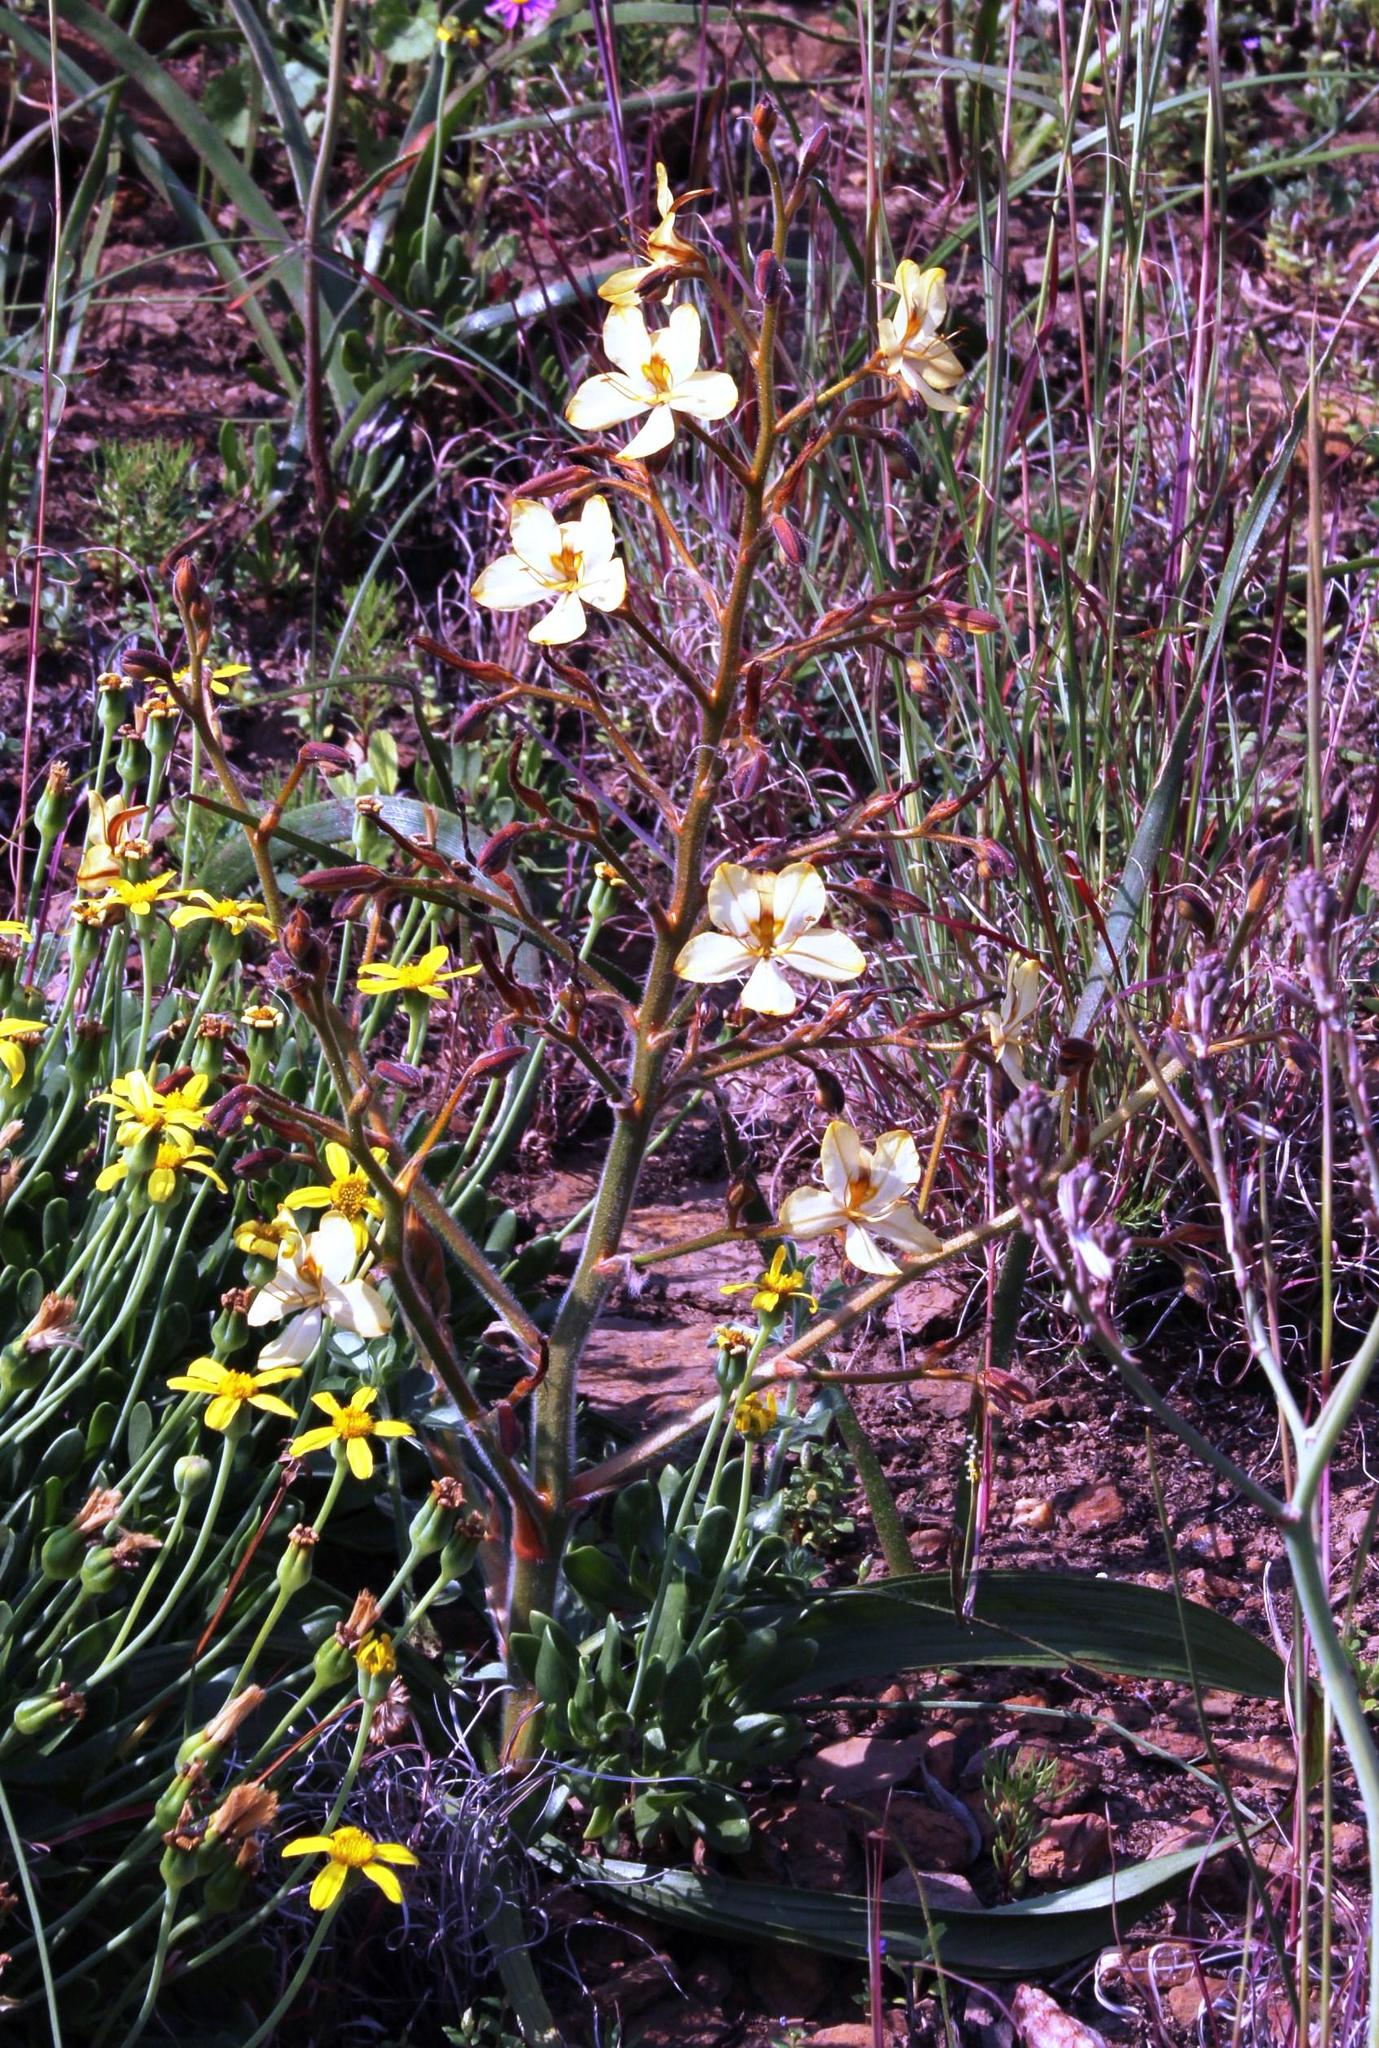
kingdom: Plantae
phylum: Tracheophyta
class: Liliopsida
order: Commelinales
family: Haemodoraceae
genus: Wachendorfia
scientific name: Wachendorfia paniculata
